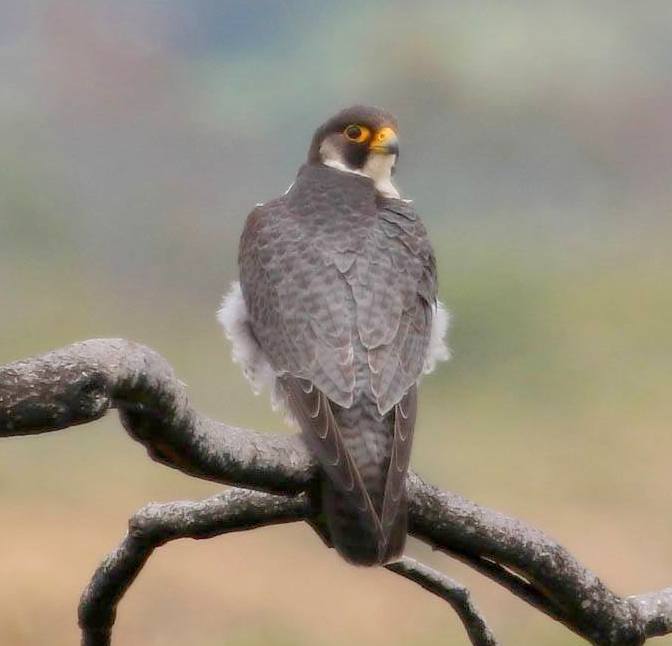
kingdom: Animalia
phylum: Chordata
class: Aves
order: Falconiformes
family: Falconidae
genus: Falco
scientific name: Falco peregrinus
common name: Peregrine falcon
